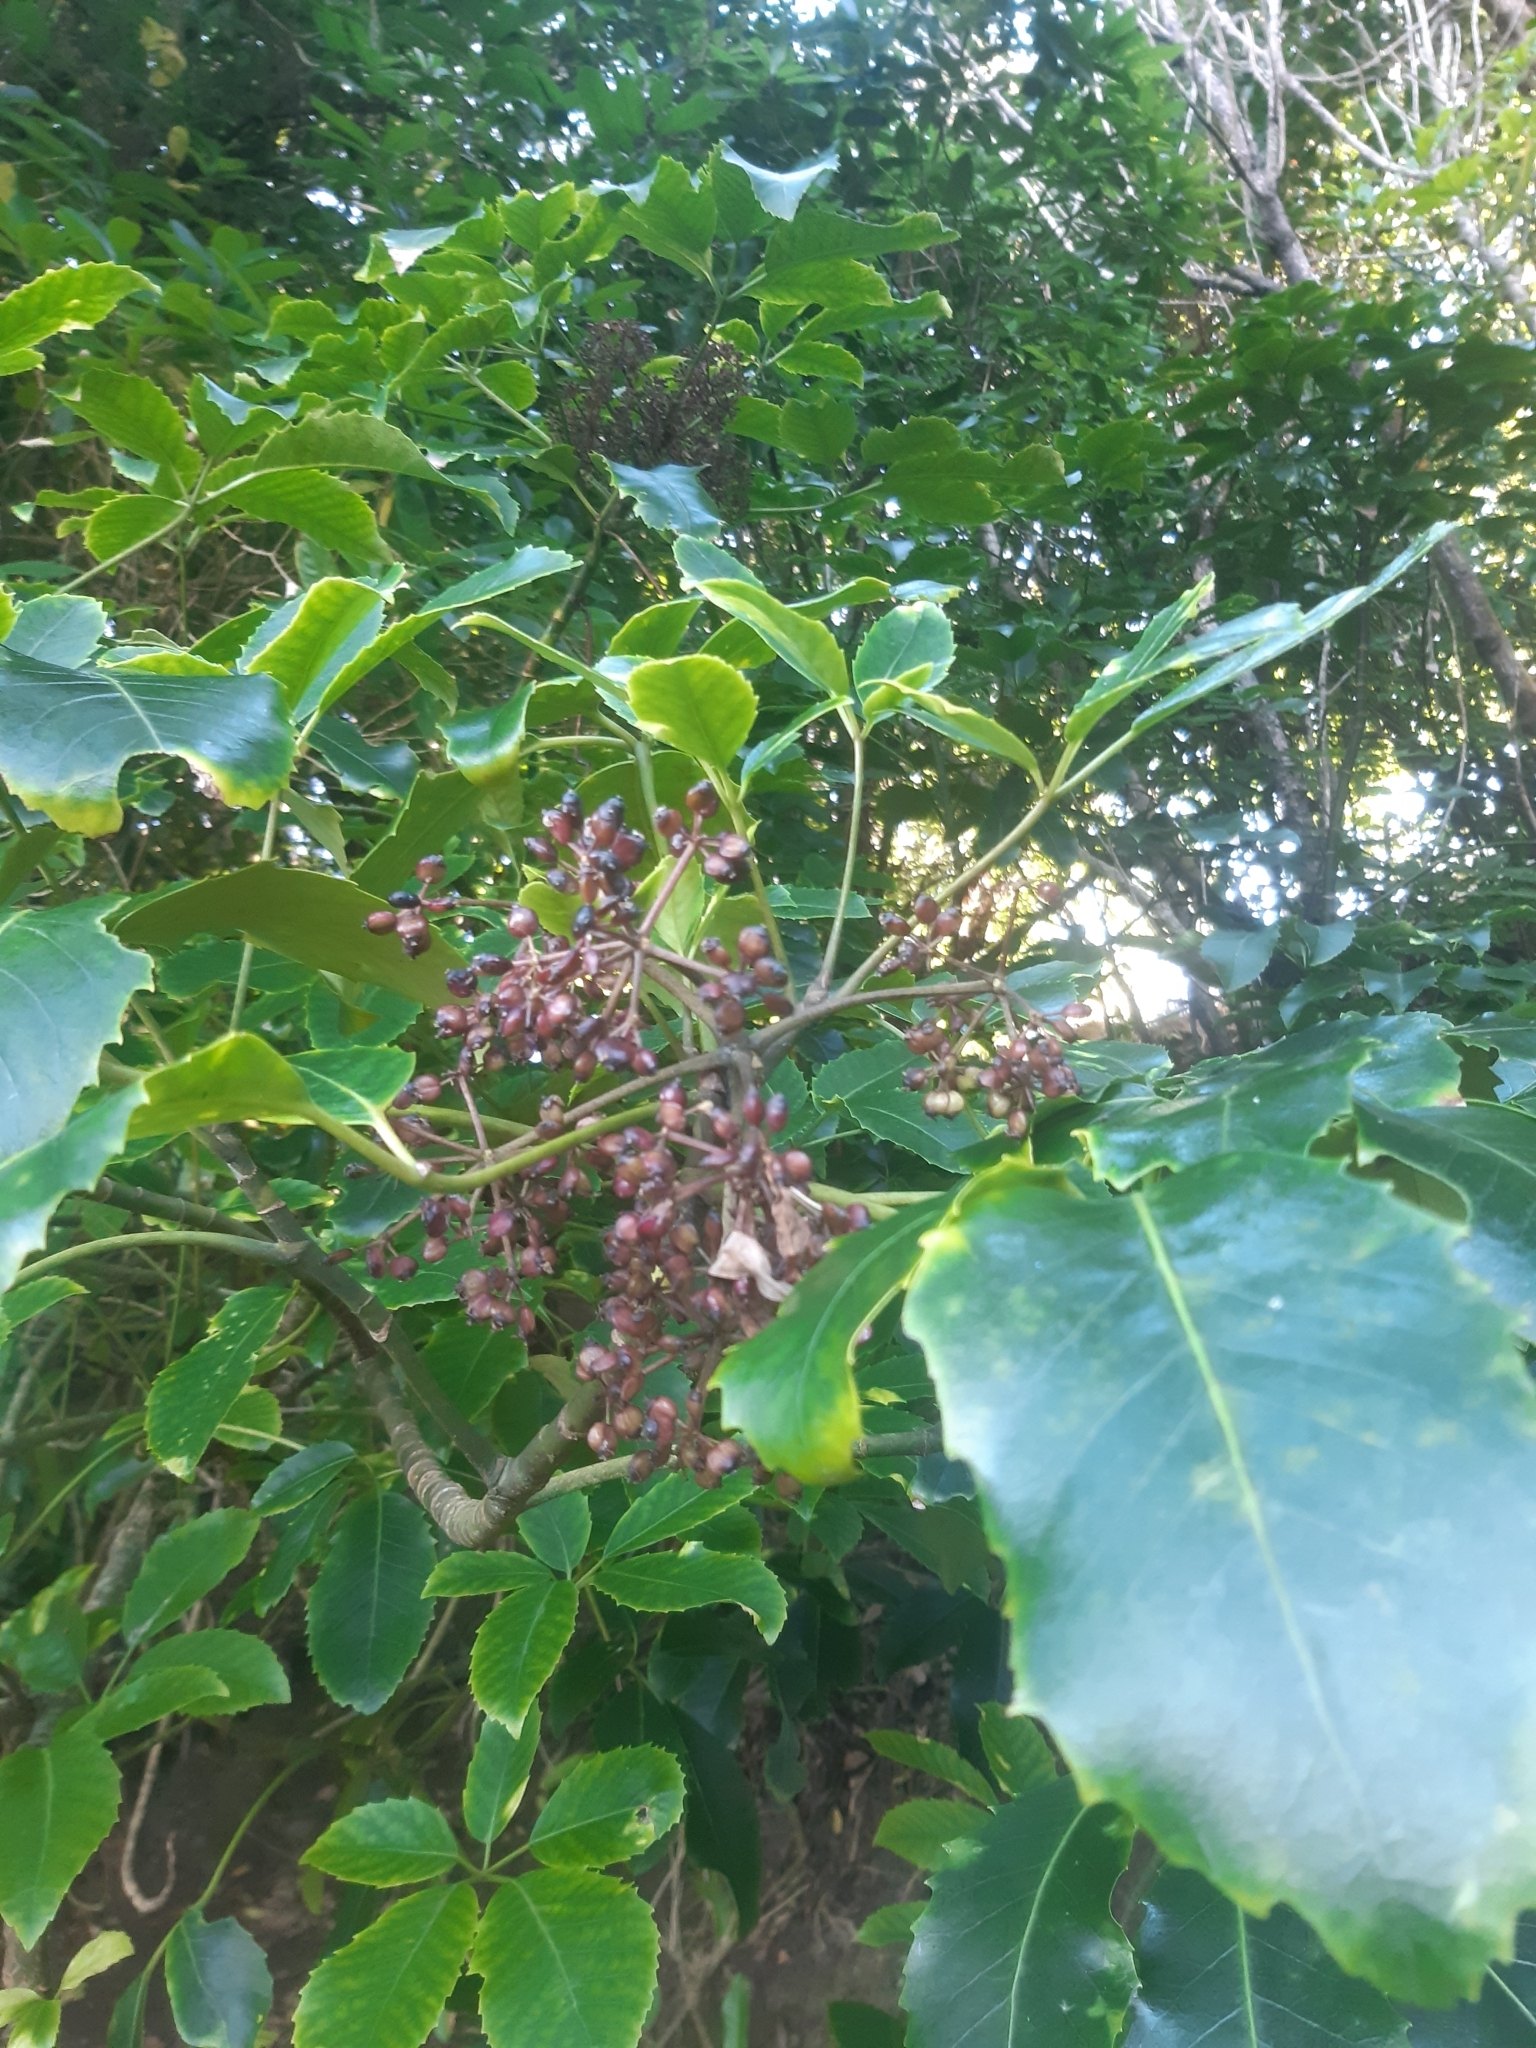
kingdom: Plantae
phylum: Tracheophyta
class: Magnoliopsida
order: Apiales
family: Araliaceae
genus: Neopanax
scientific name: Neopanax arboreus
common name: Five-fingers
